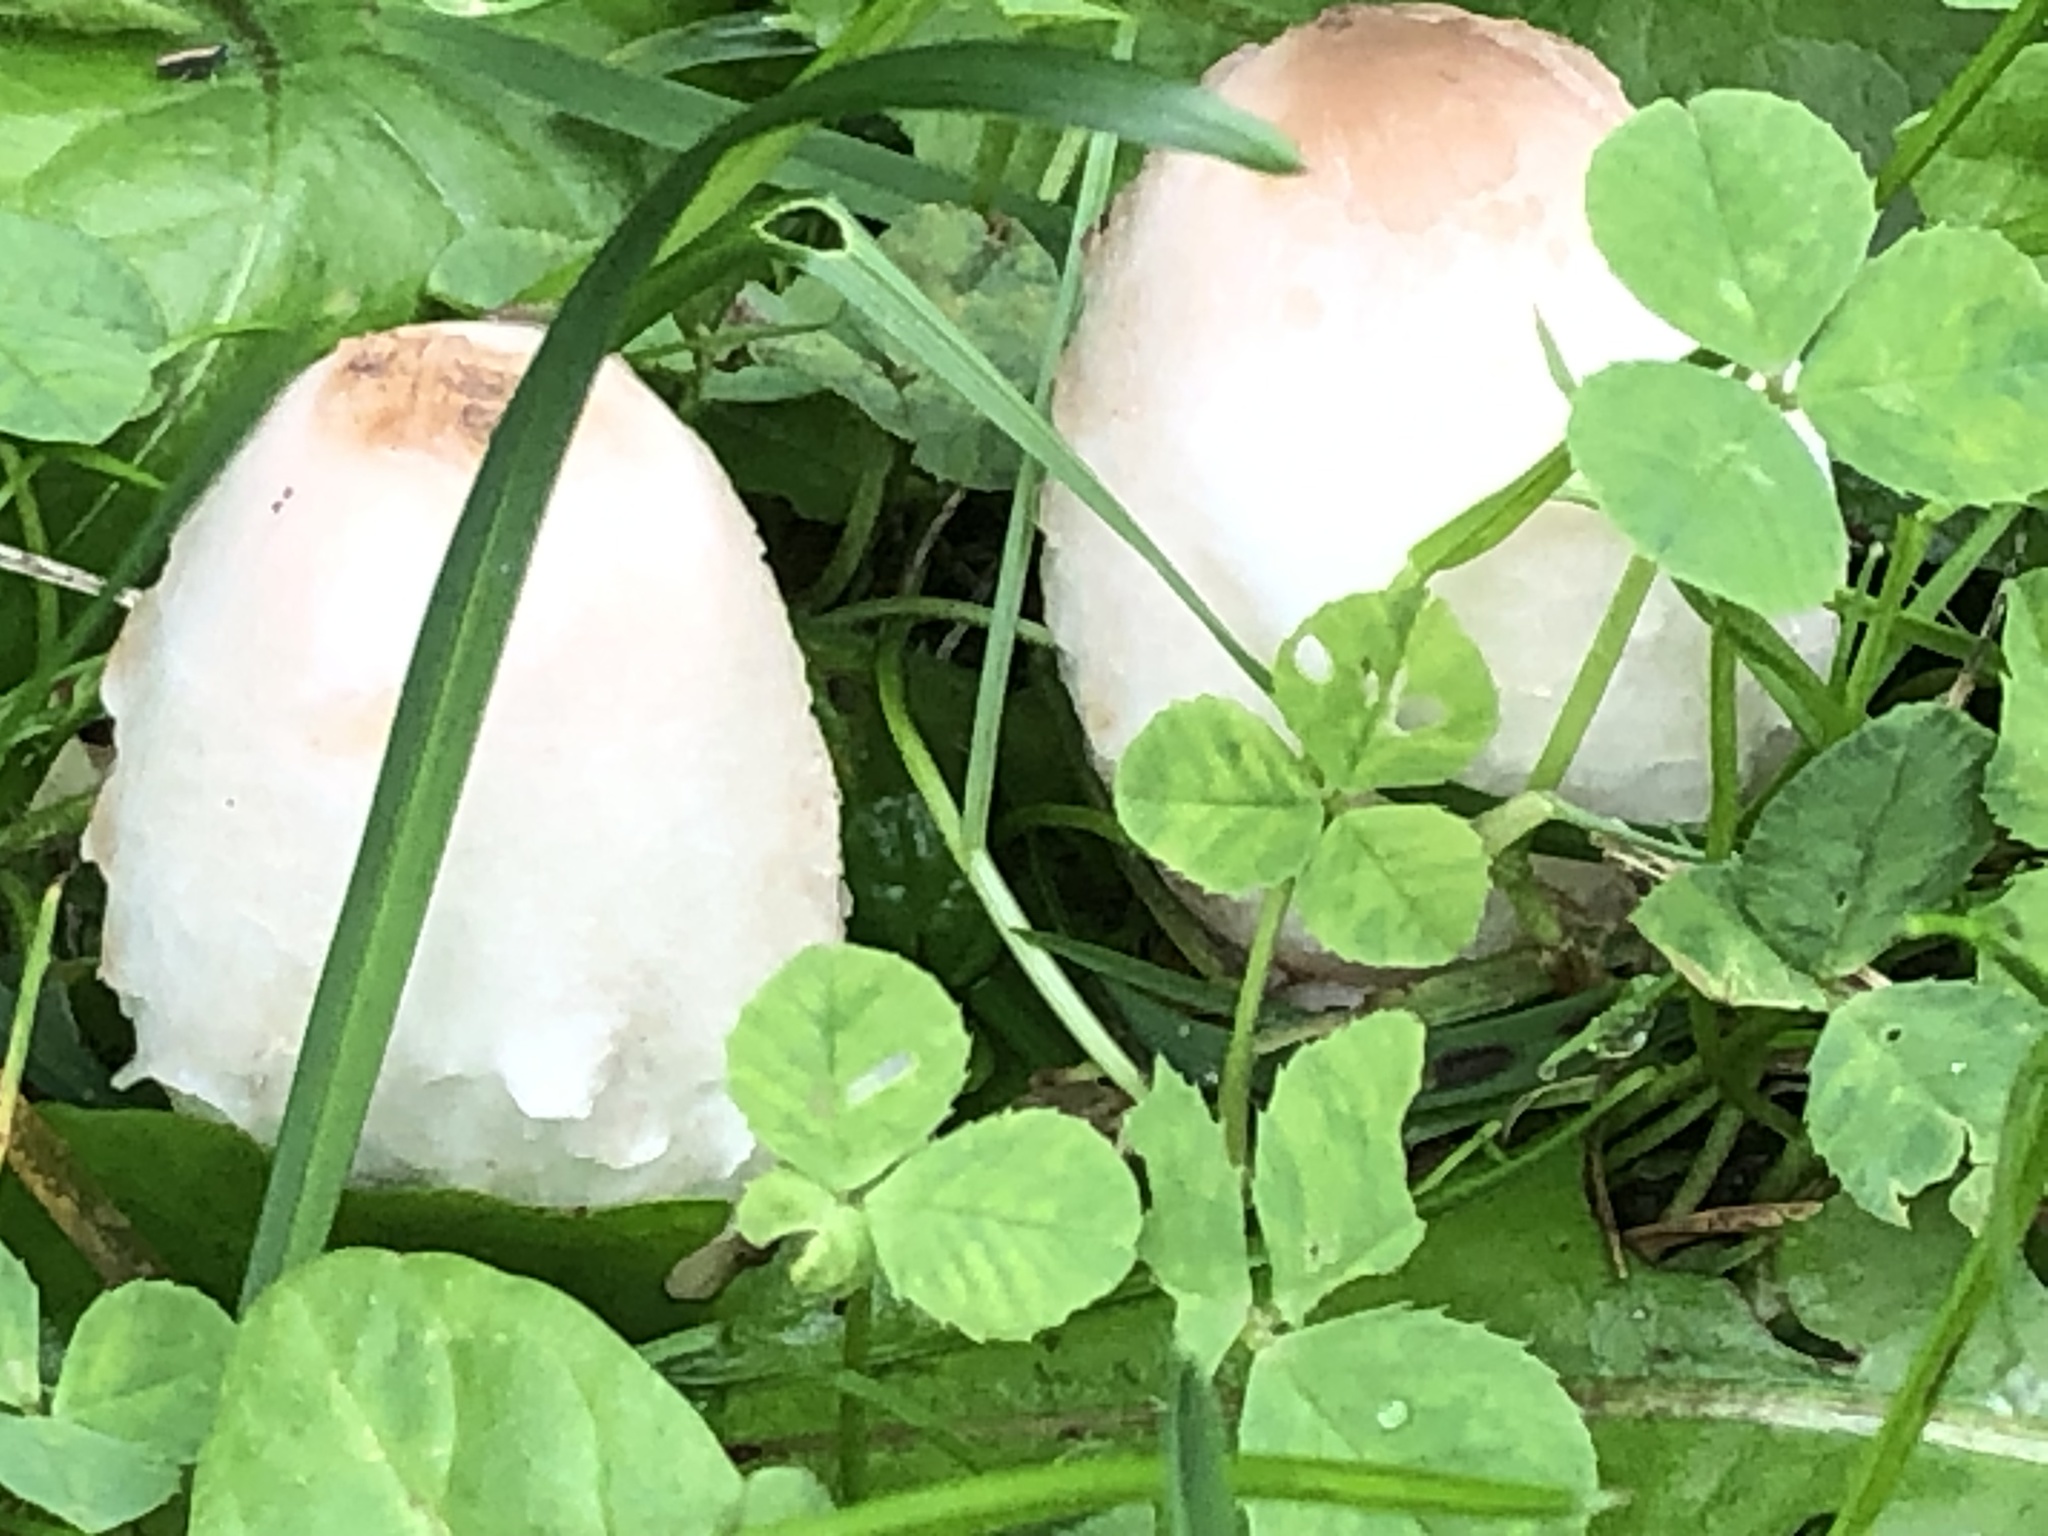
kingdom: Fungi
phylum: Basidiomycota
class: Agaricomycetes
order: Agaricales
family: Agaricaceae
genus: Coprinus
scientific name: Coprinus comatus
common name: Lawyer's wig
